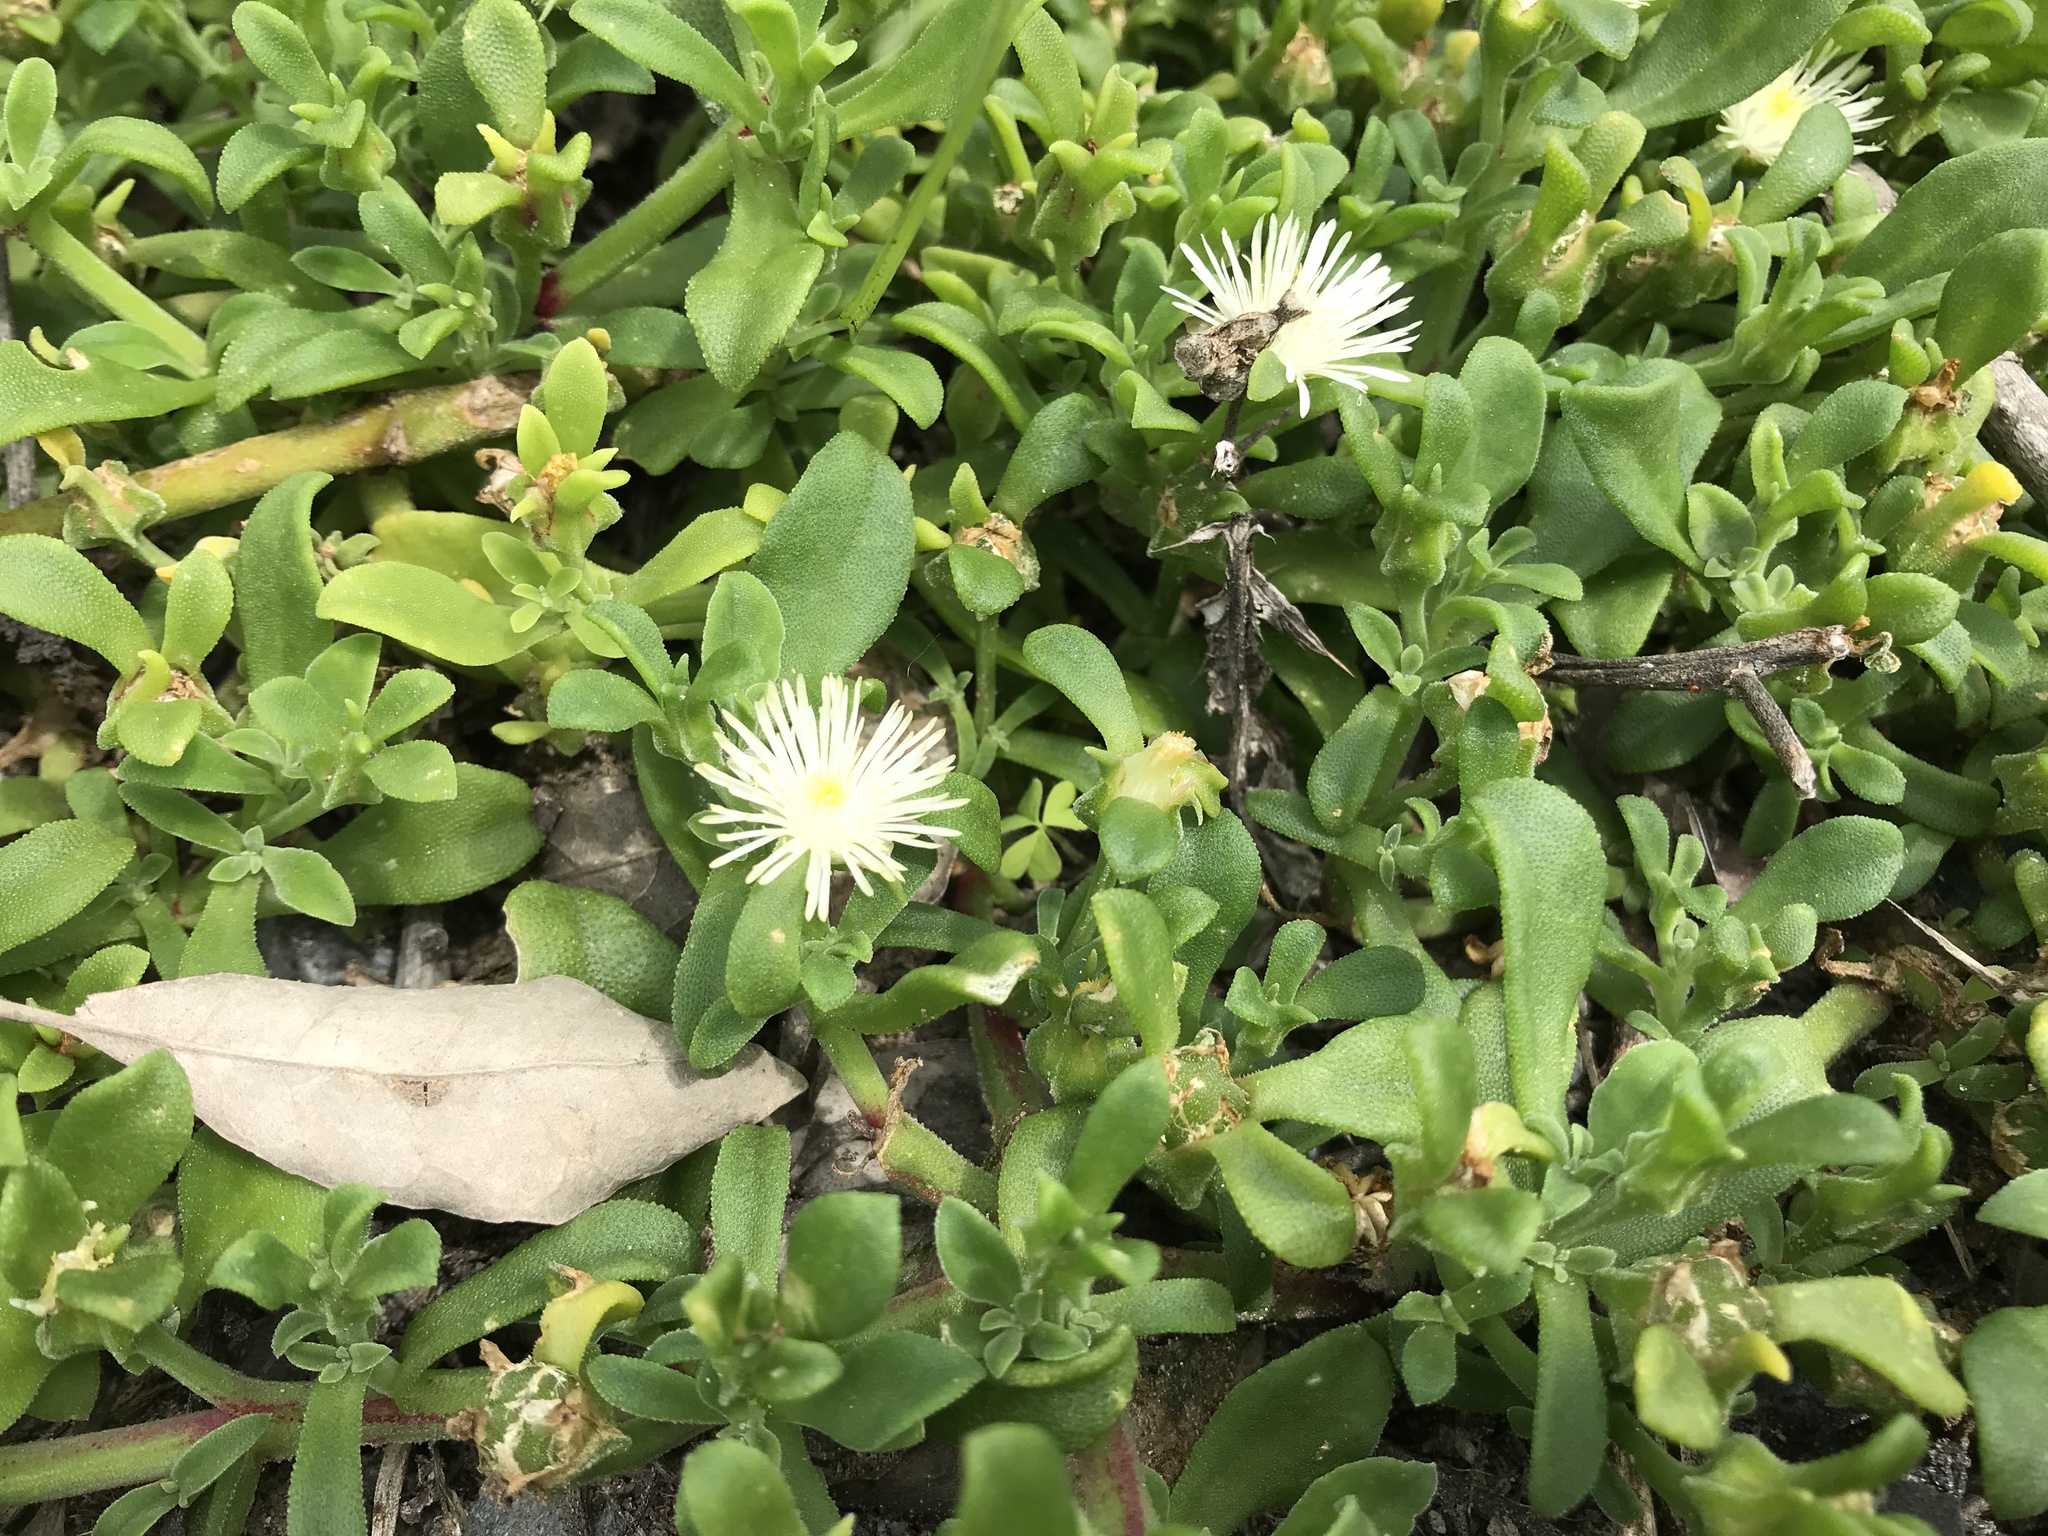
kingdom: Plantae
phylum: Tracheophyta
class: Magnoliopsida
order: Caryophyllales
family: Aizoaceae
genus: Mesembryanthemum
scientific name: Mesembryanthemum aitonis
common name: Angled iceplant
